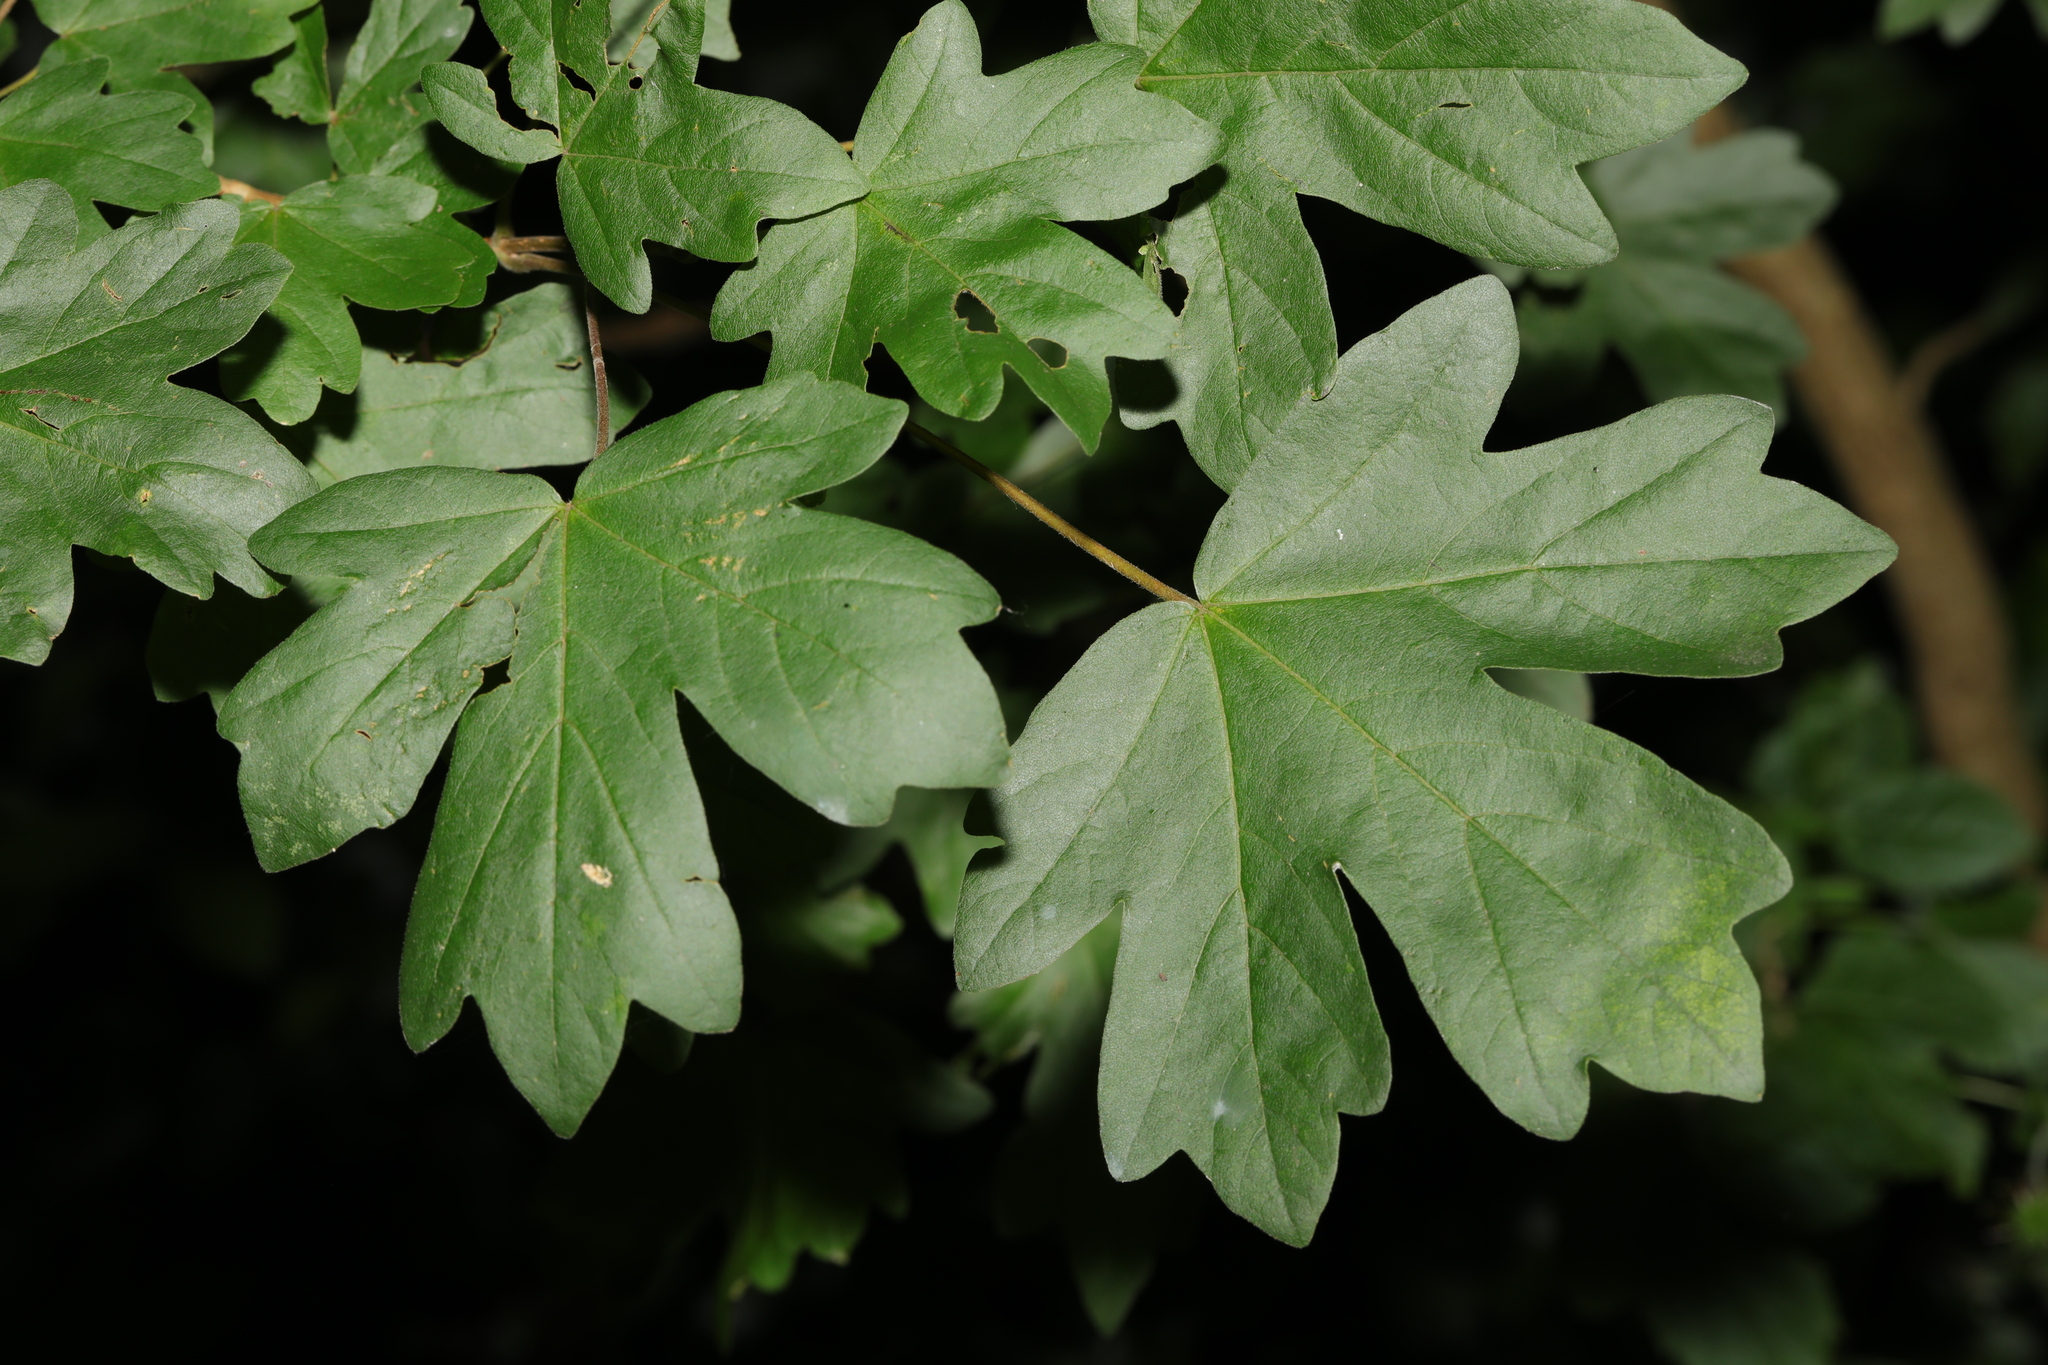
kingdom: Plantae
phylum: Tracheophyta
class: Magnoliopsida
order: Sapindales
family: Sapindaceae
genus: Acer
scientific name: Acer campestre
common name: Field maple
